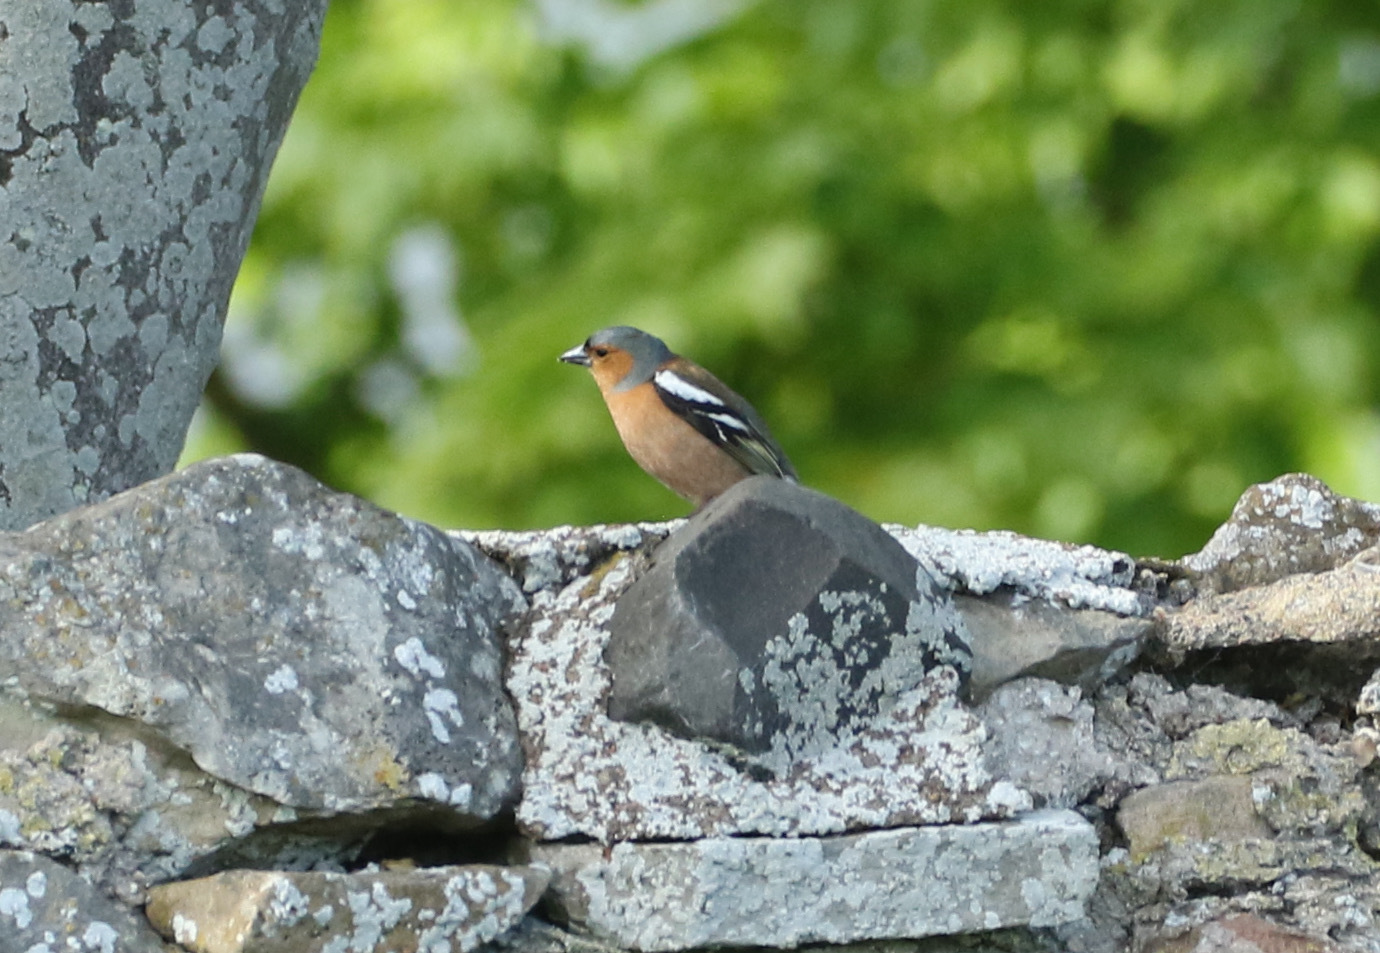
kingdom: Animalia
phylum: Chordata
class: Aves
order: Passeriformes
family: Fringillidae
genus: Fringilla
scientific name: Fringilla coelebs
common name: Common chaffinch
